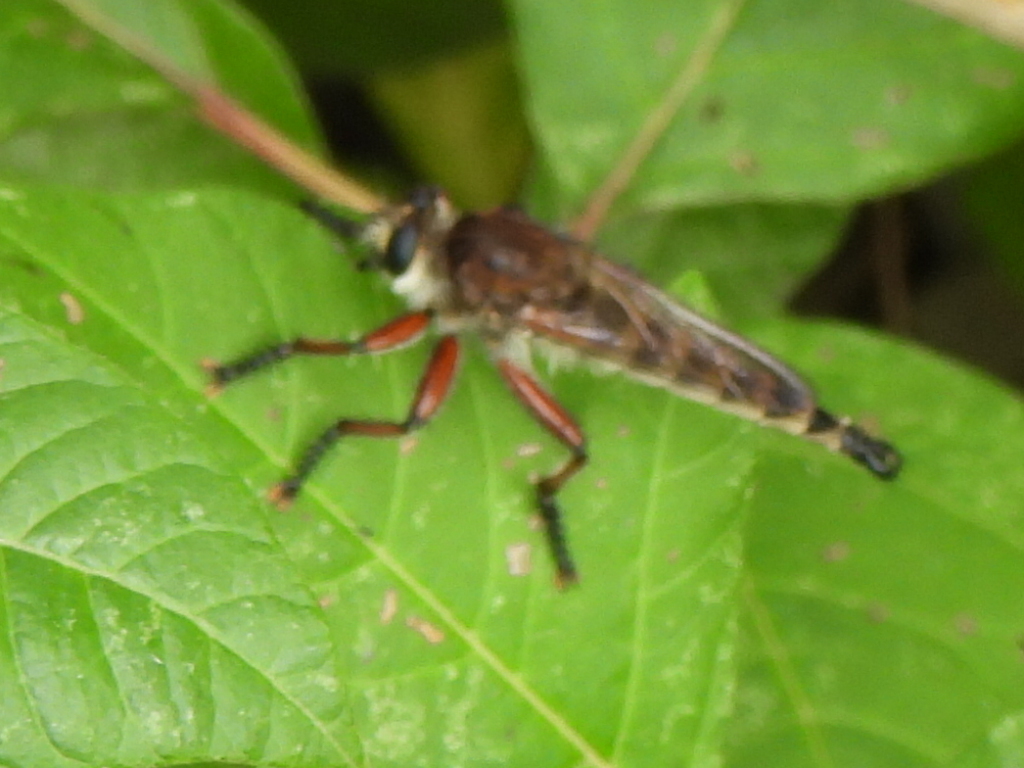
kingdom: Animalia
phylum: Arthropoda
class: Insecta
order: Diptera
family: Asilidae
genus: Promachus
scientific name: Promachus hinei
